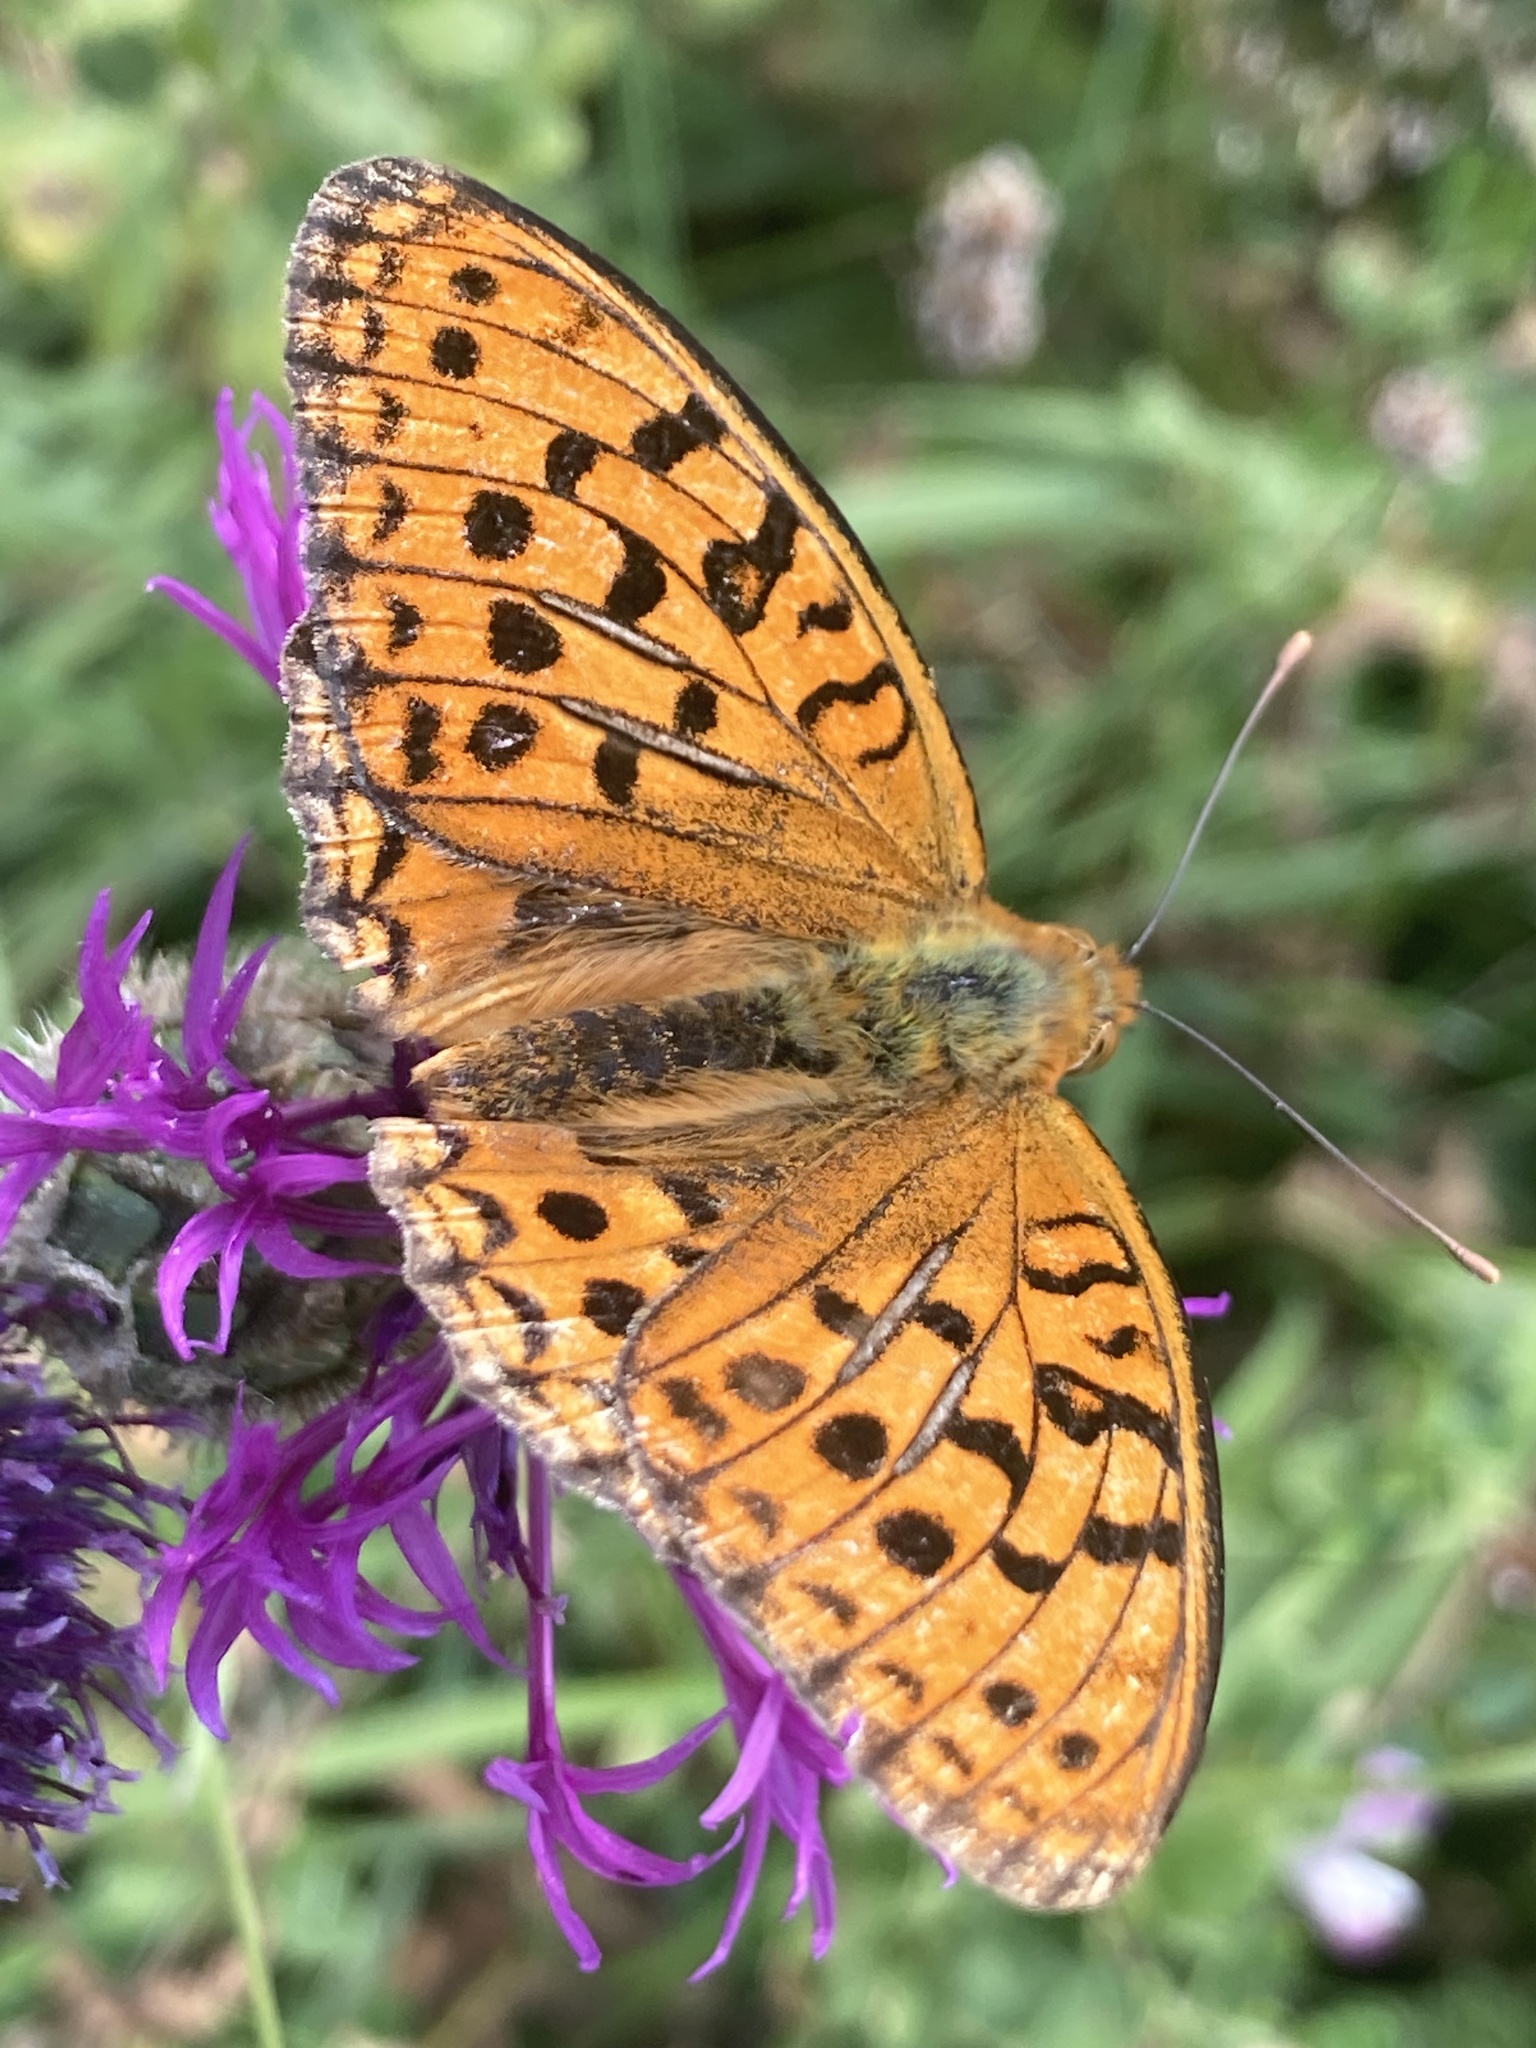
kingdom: Animalia
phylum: Arthropoda
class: Insecta
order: Lepidoptera
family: Nymphalidae
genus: Fabriciana
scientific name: Fabriciana adippe
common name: High brown fritillary
